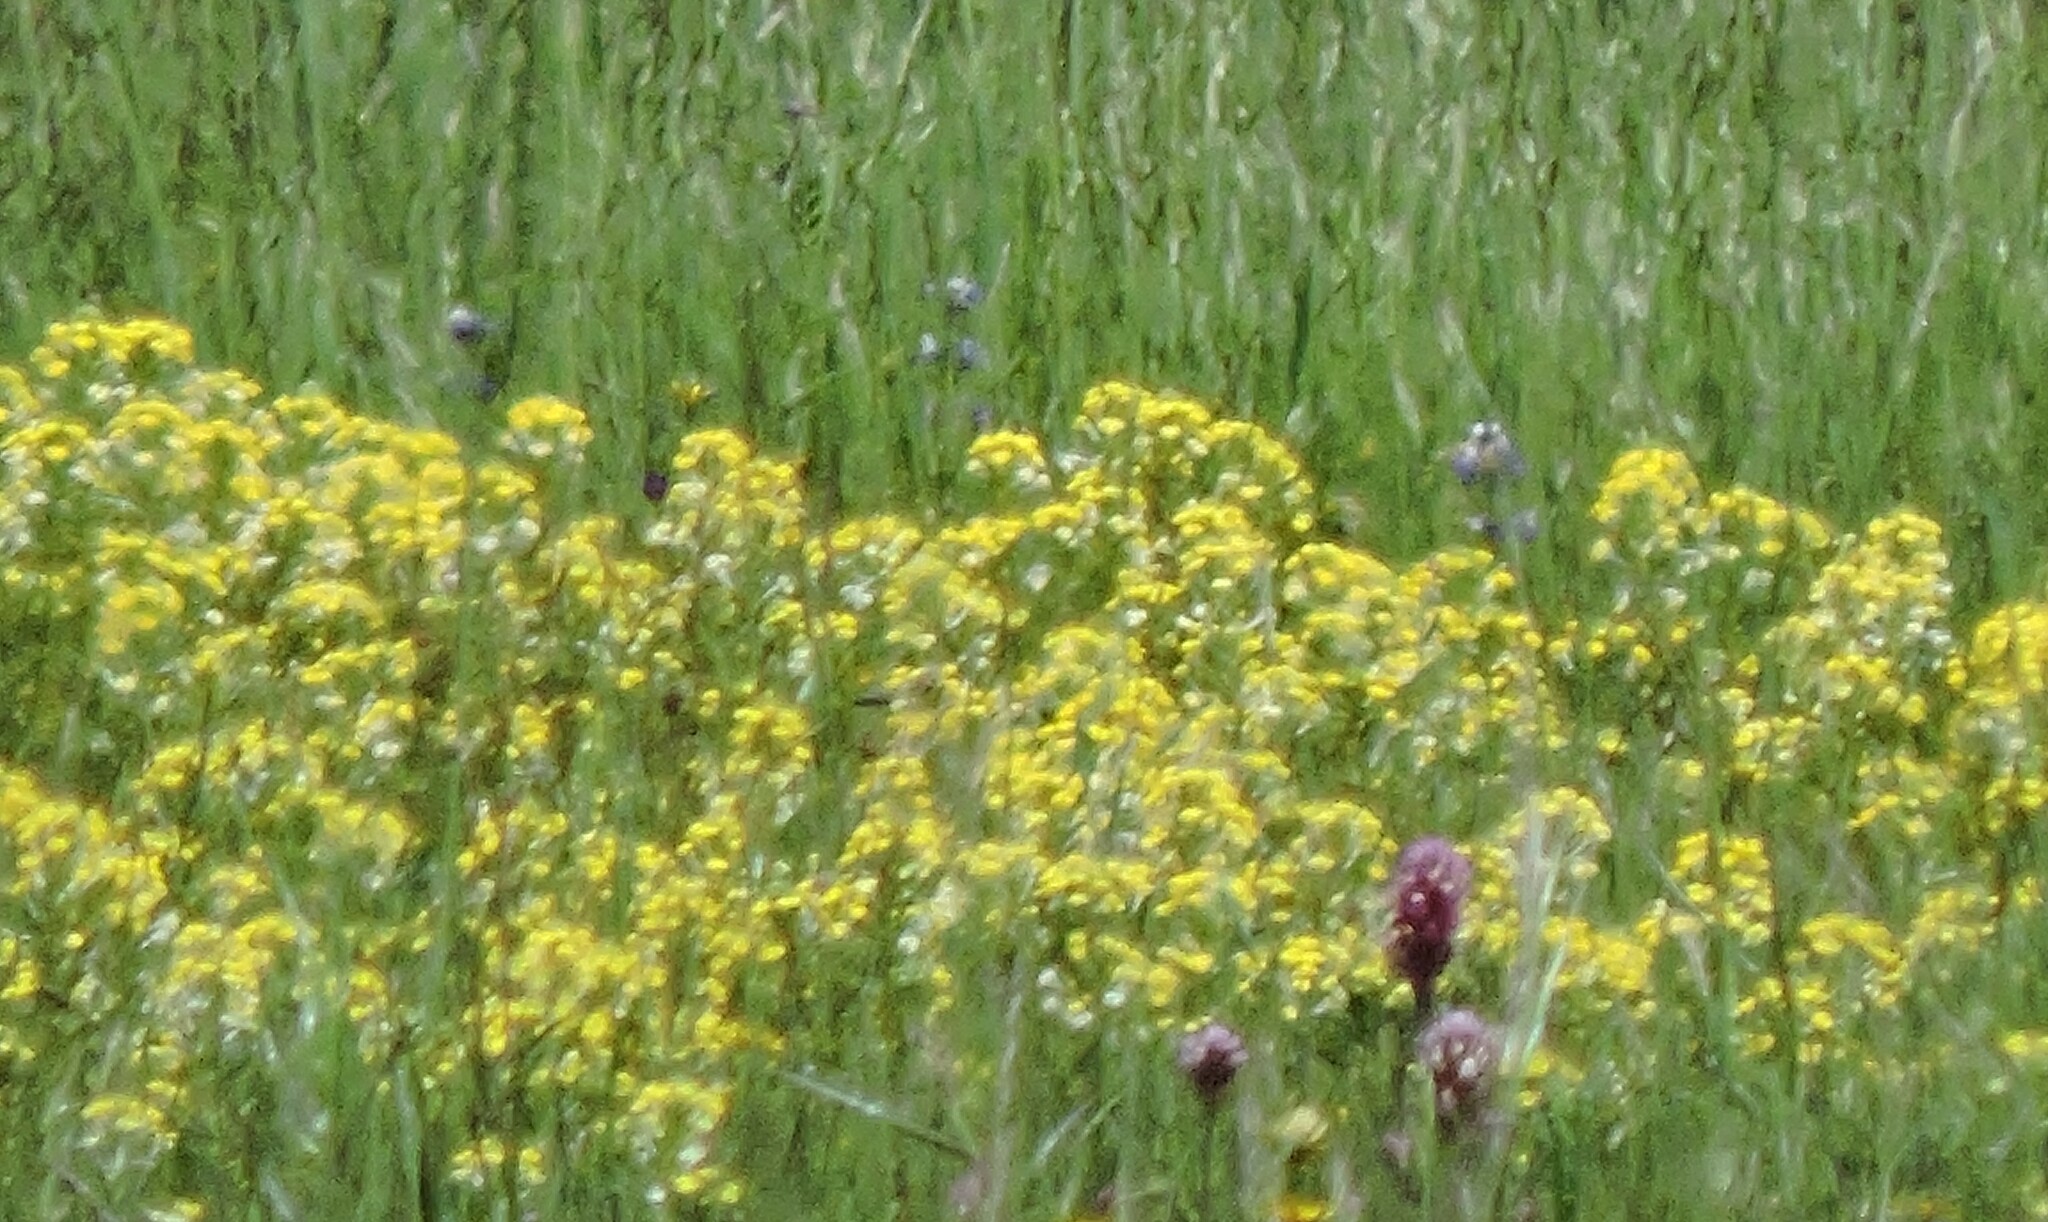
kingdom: Plantae
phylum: Tracheophyta
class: Magnoliopsida
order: Lamiales
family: Orobanchaceae
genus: Triphysaria
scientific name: Triphysaria versicolor
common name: Bearded false owl-clover
